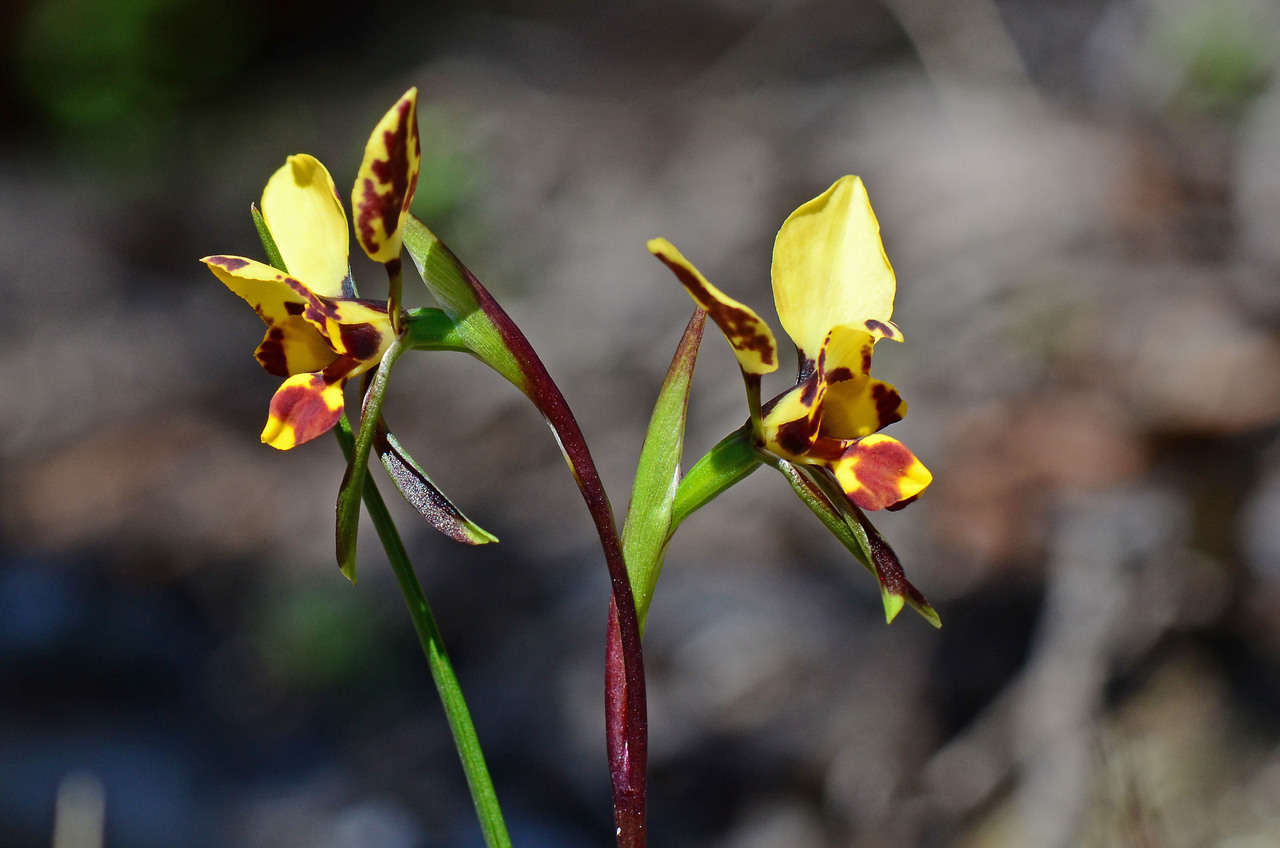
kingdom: Plantae
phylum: Tracheophyta
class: Liliopsida
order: Asparagales
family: Orchidaceae
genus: Diuris
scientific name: Diuris pardina
